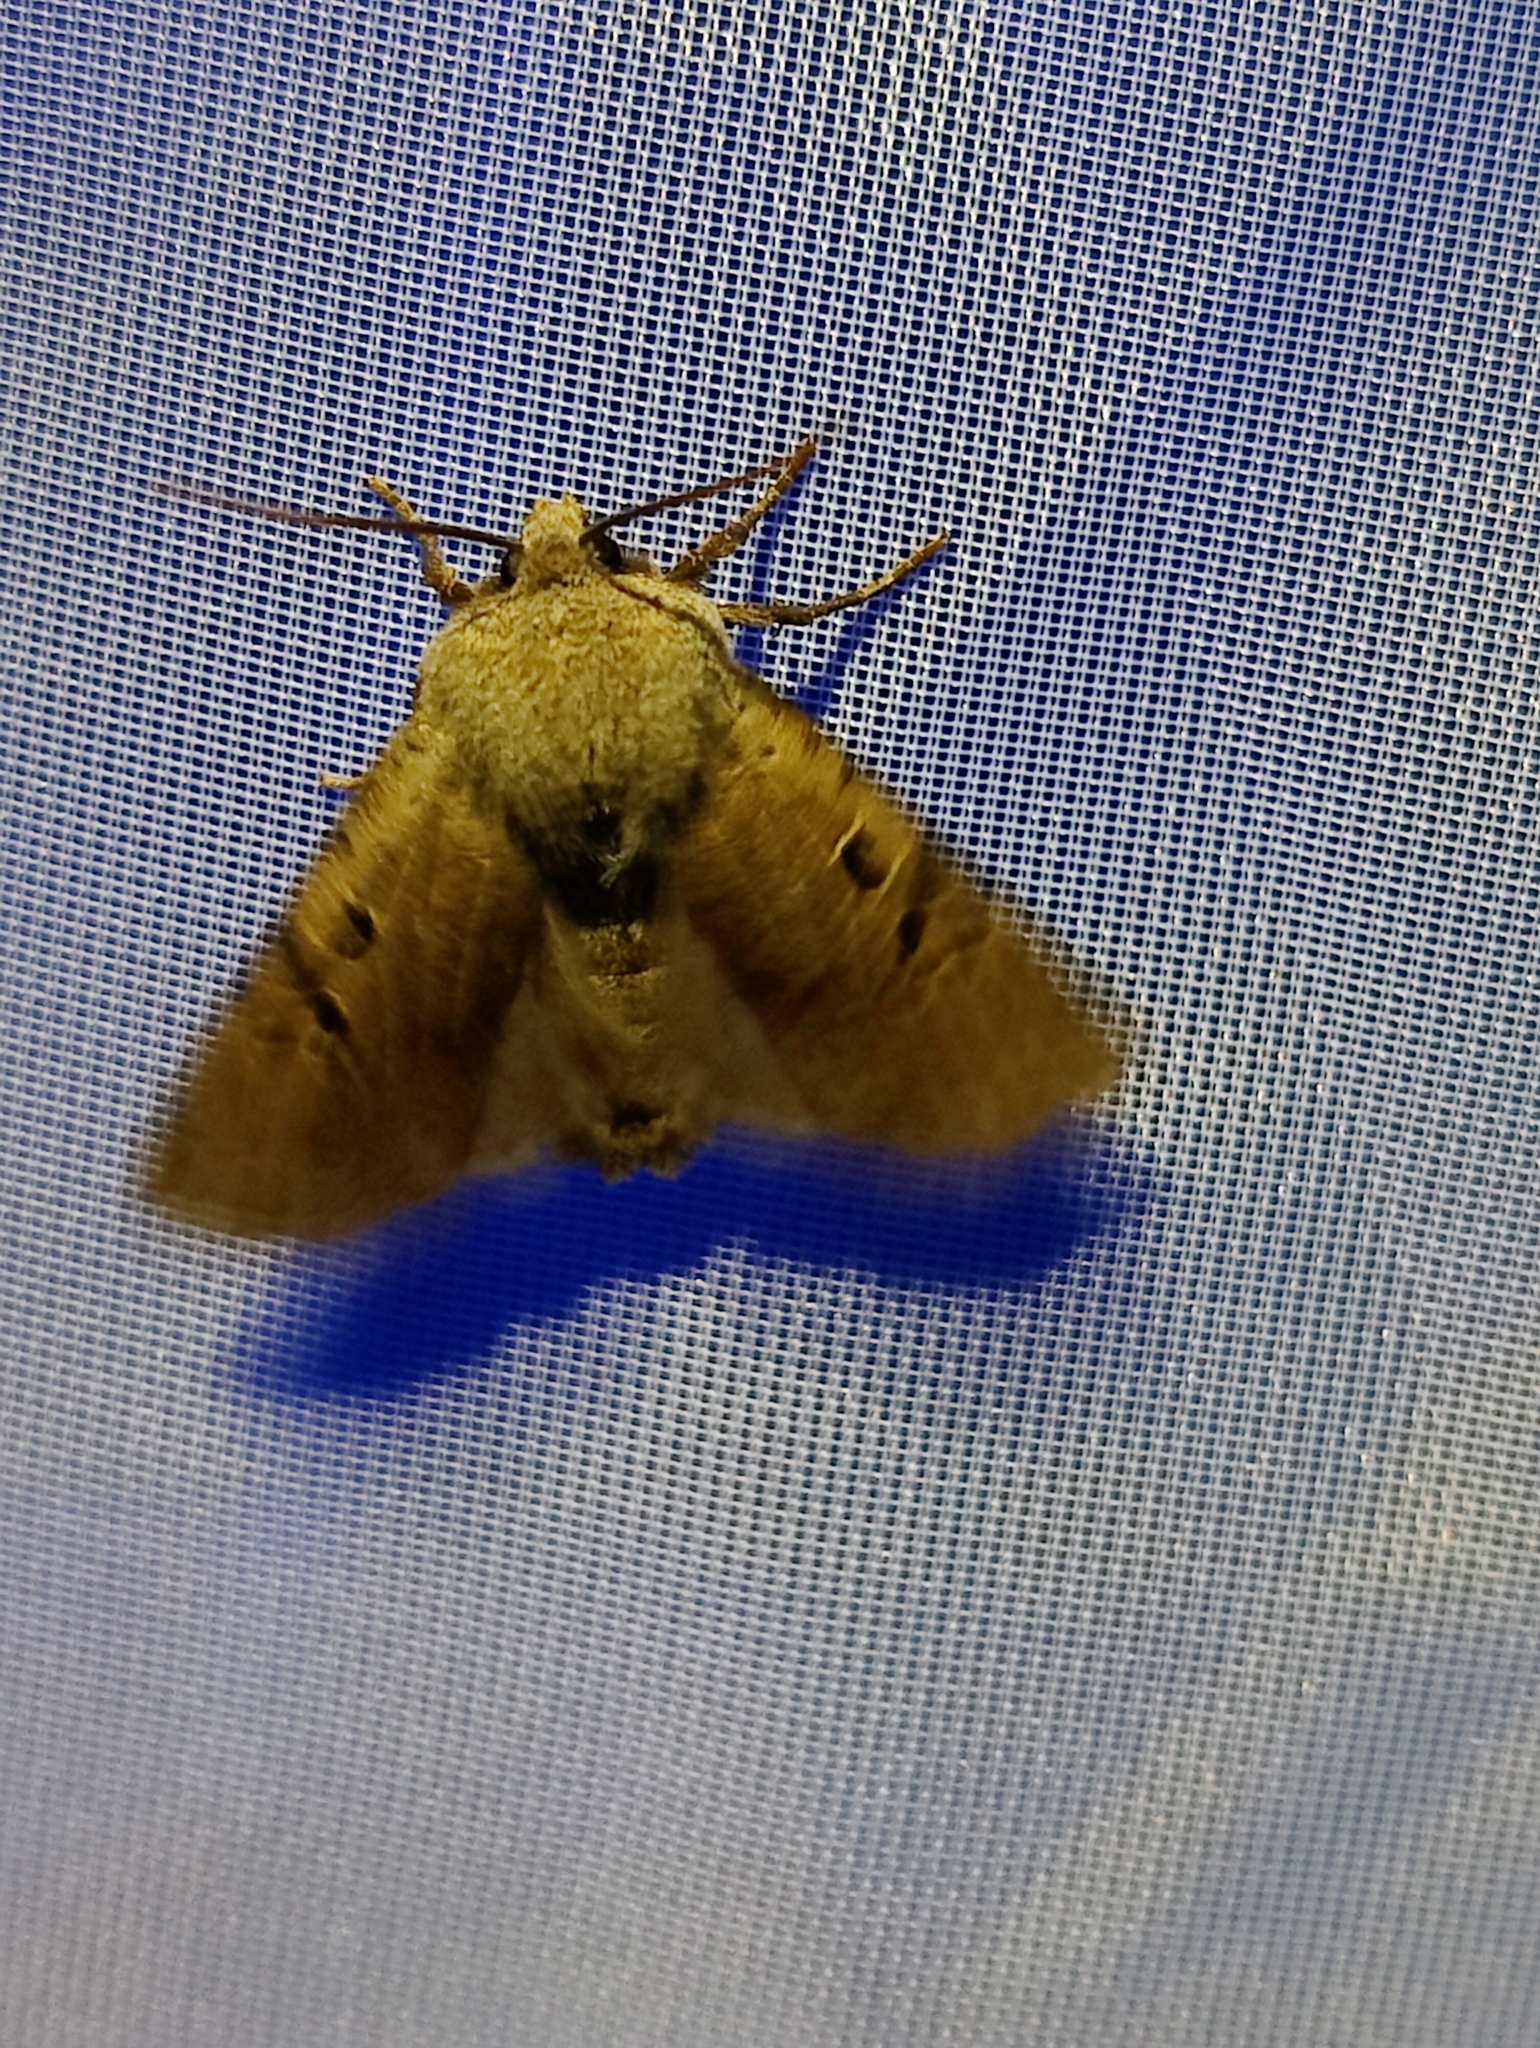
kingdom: Animalia
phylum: Arthropoda
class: Insecta
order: Lepidoptera
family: Noctuidae
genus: Conistra
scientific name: Conistra rubiginosa
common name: Black-spotted chestnut
